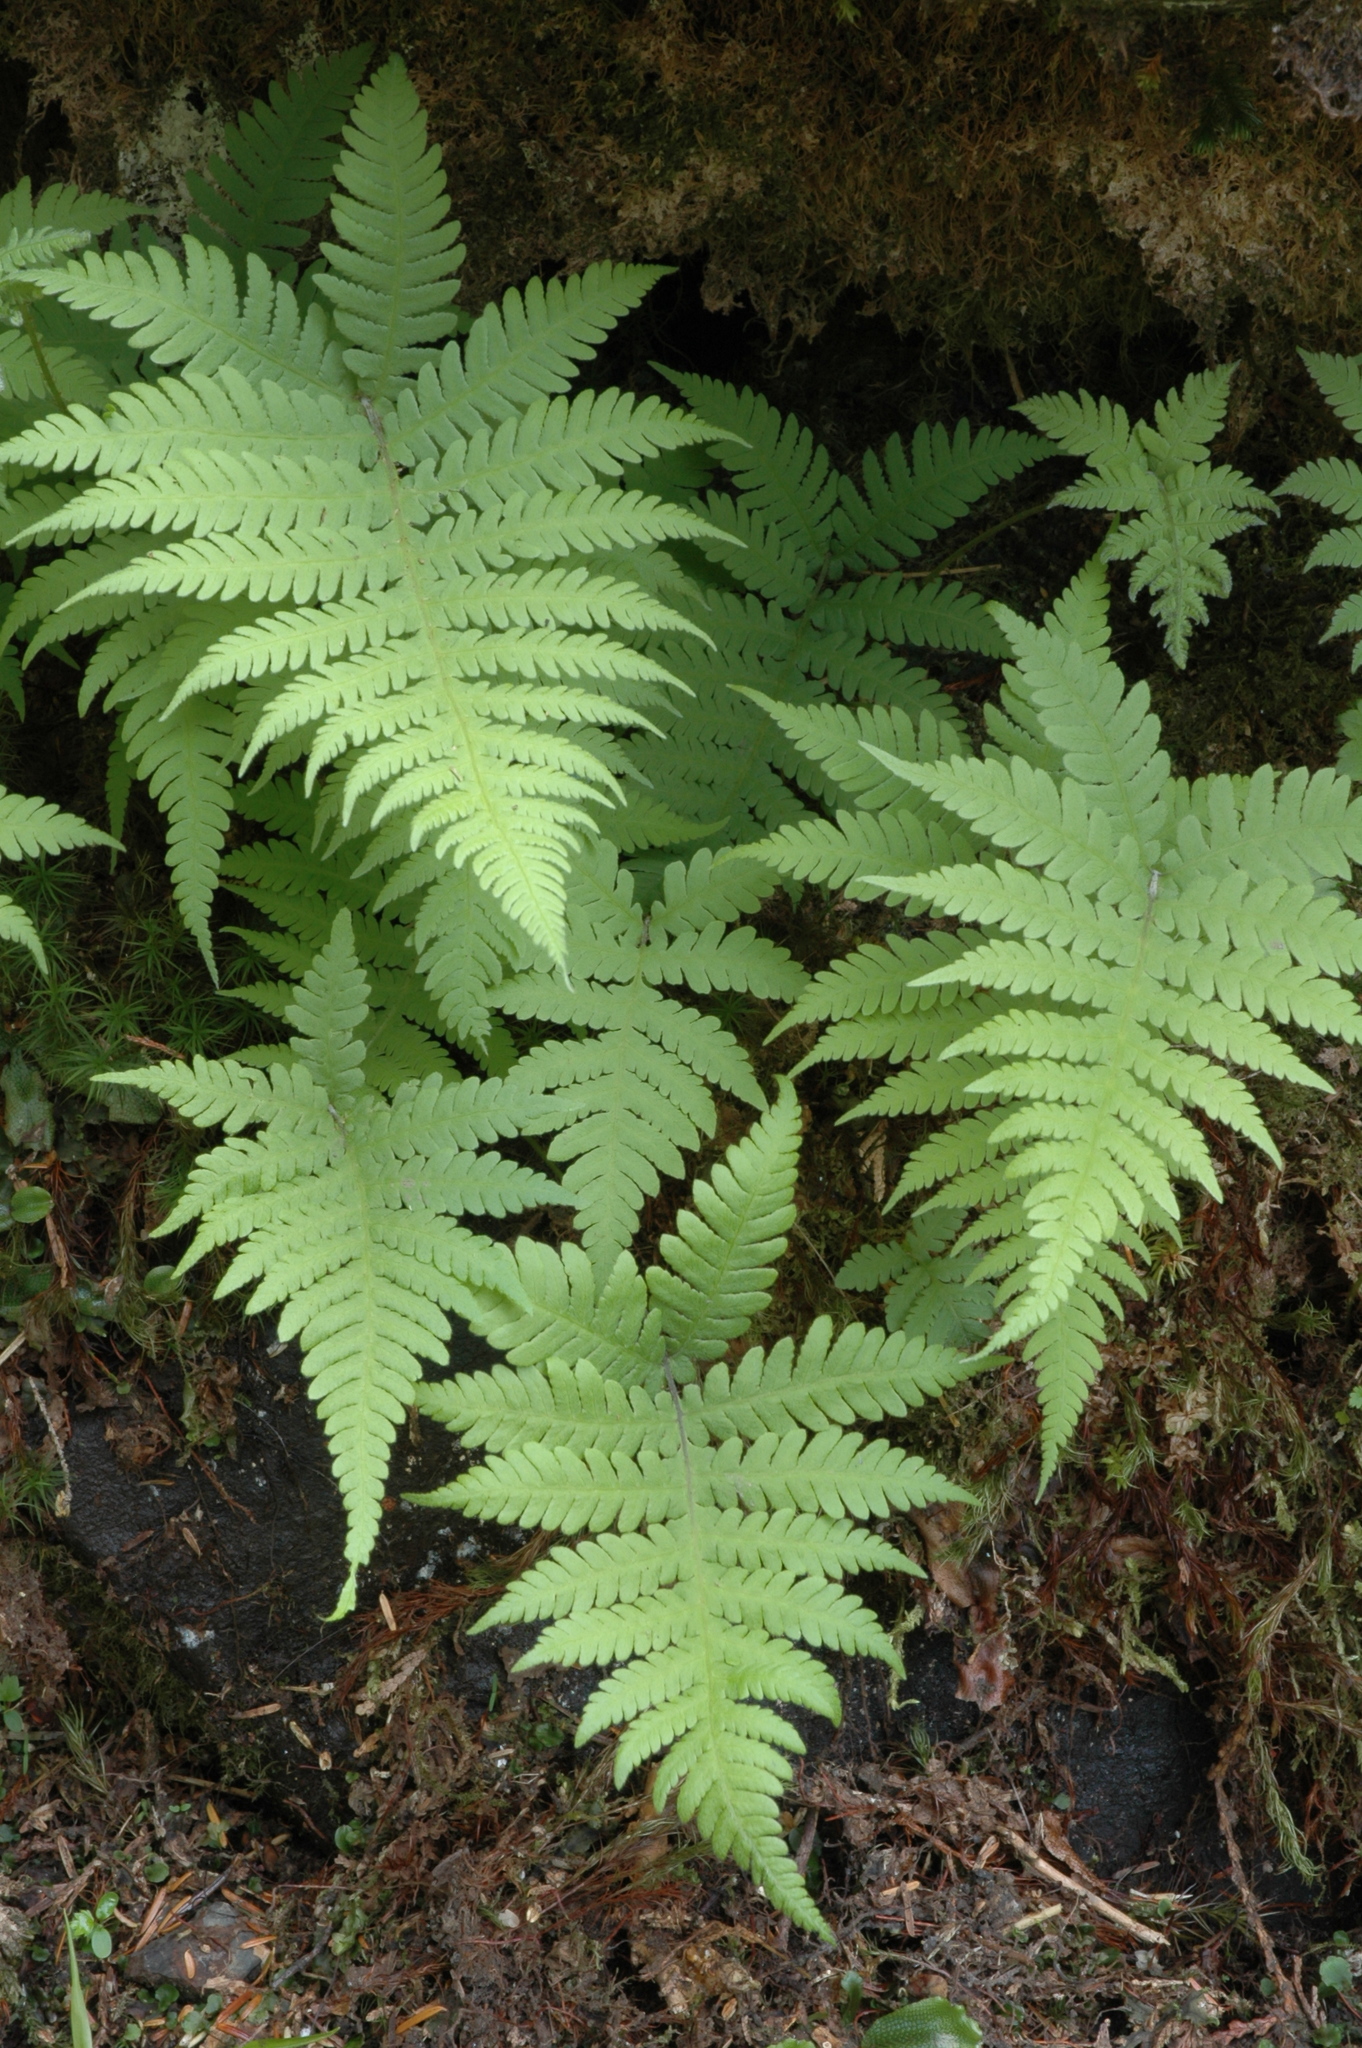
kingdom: Plantae
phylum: Tracheophyta
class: Polypodiopsida
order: Polypodiales
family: Thelypteridaceae
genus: Phegopteris
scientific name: Phegopteris connectilis
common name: Beech fern
